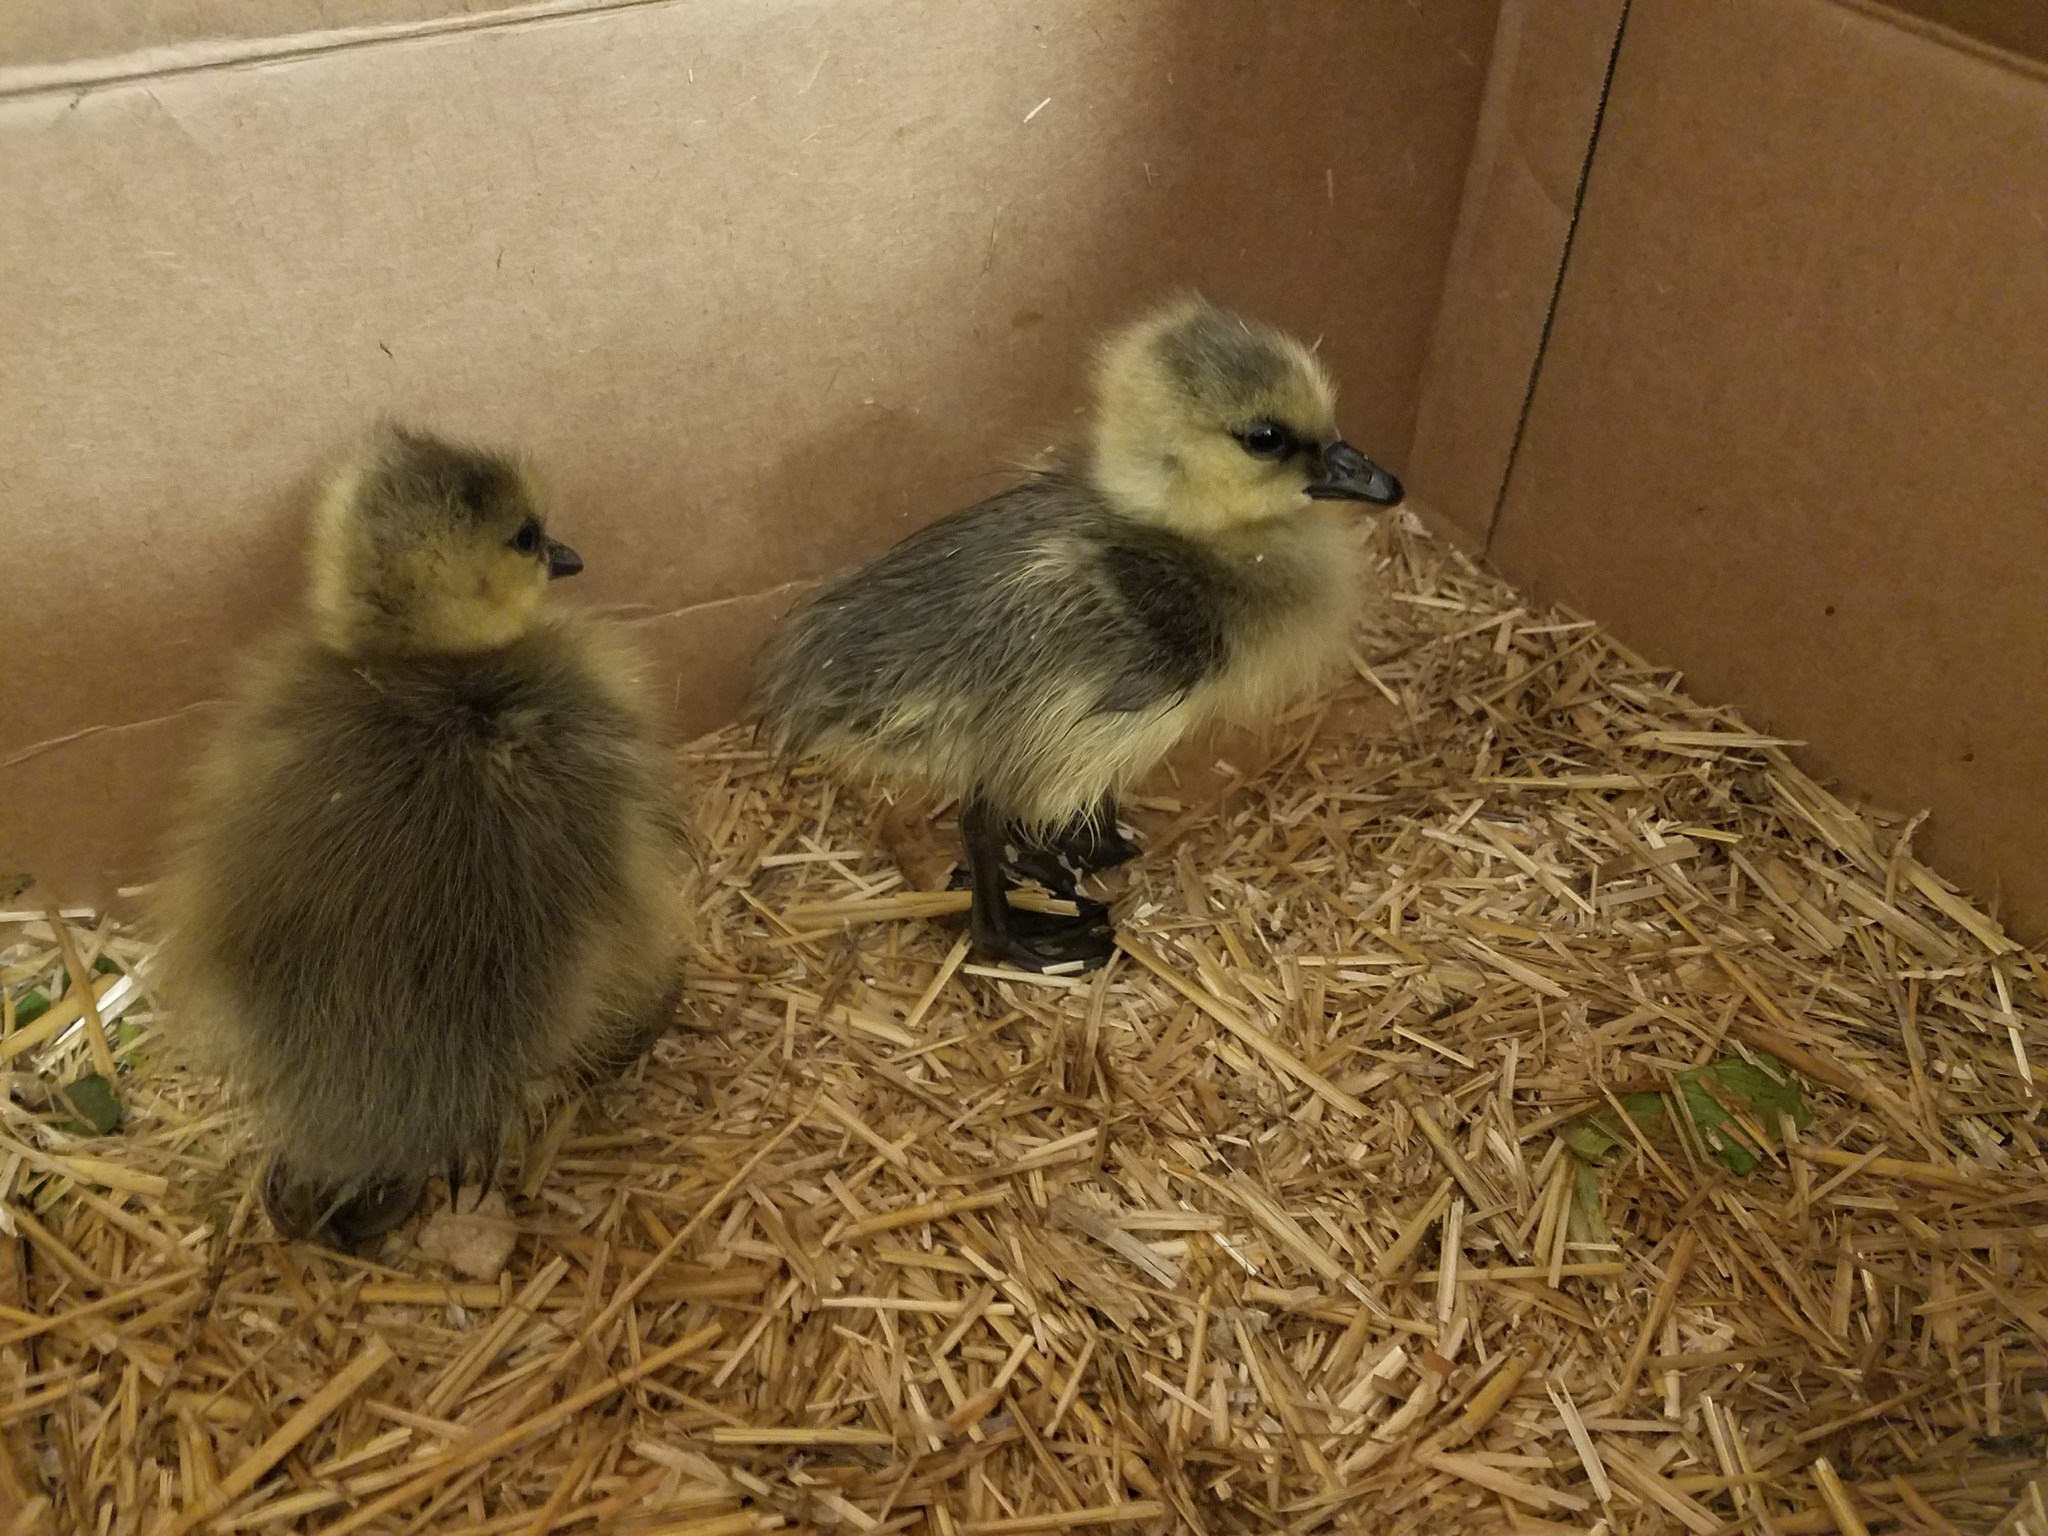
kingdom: Animalia
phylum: Chordata
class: Aves
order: Anseriformes
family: Anatidae
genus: Branta
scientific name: Branta canadensis
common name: Canada goose
